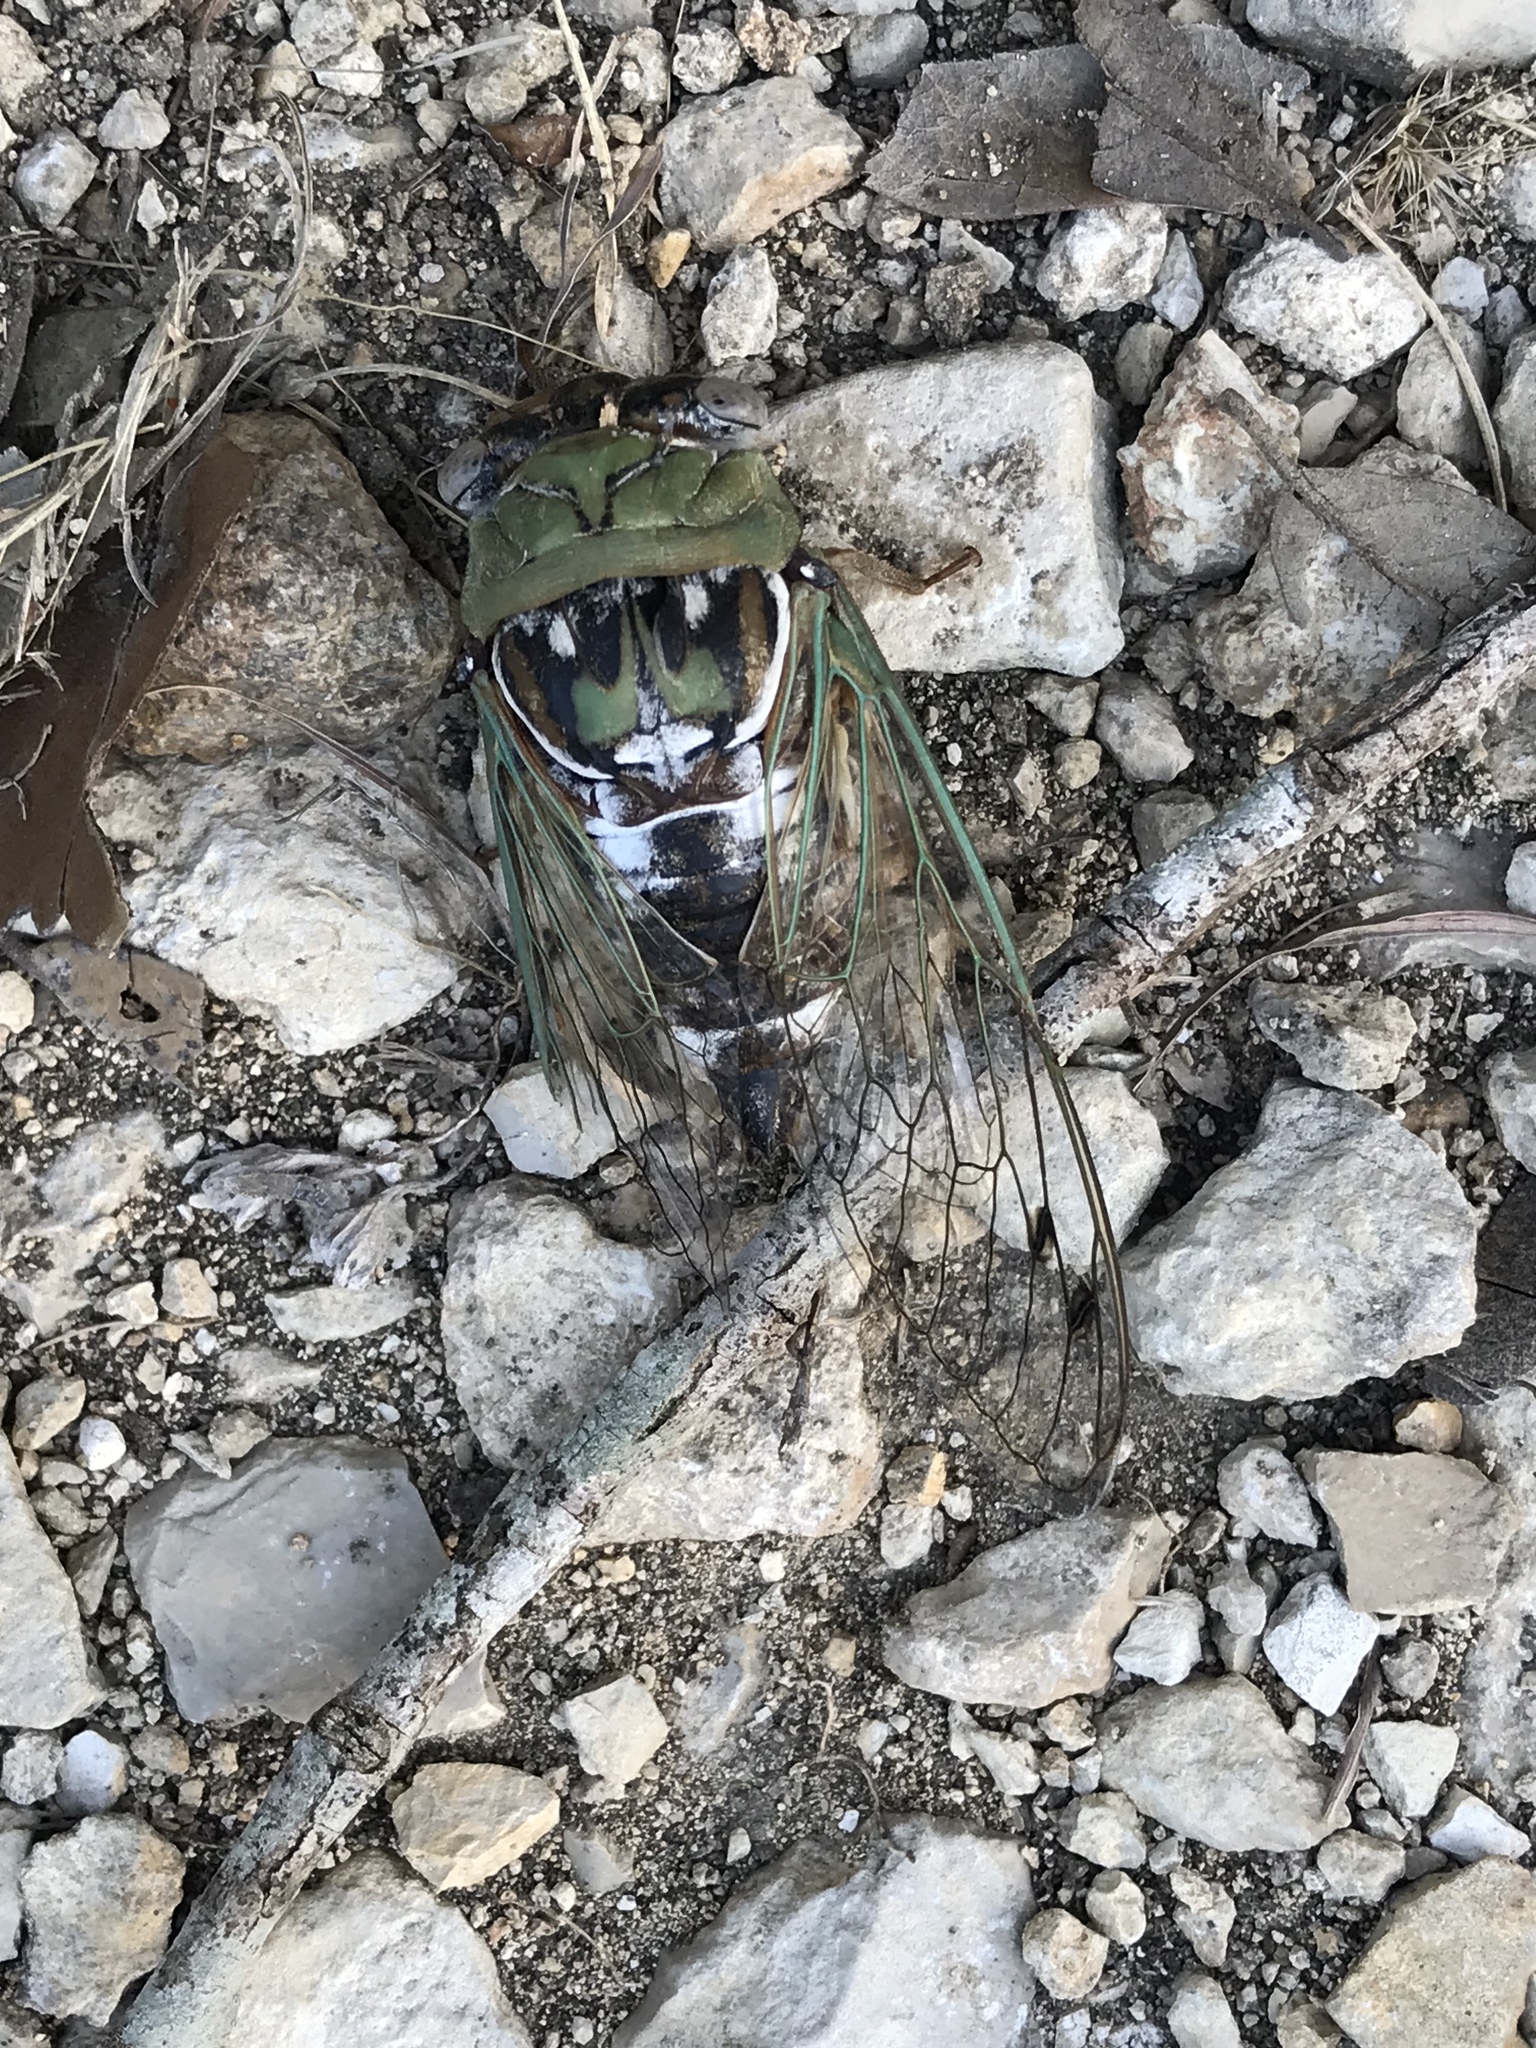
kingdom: Animalia
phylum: Arthropoda
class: Insecta
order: Hemiptera
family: Cicadidae
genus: Megatibicen
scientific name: Megatibicen resh
